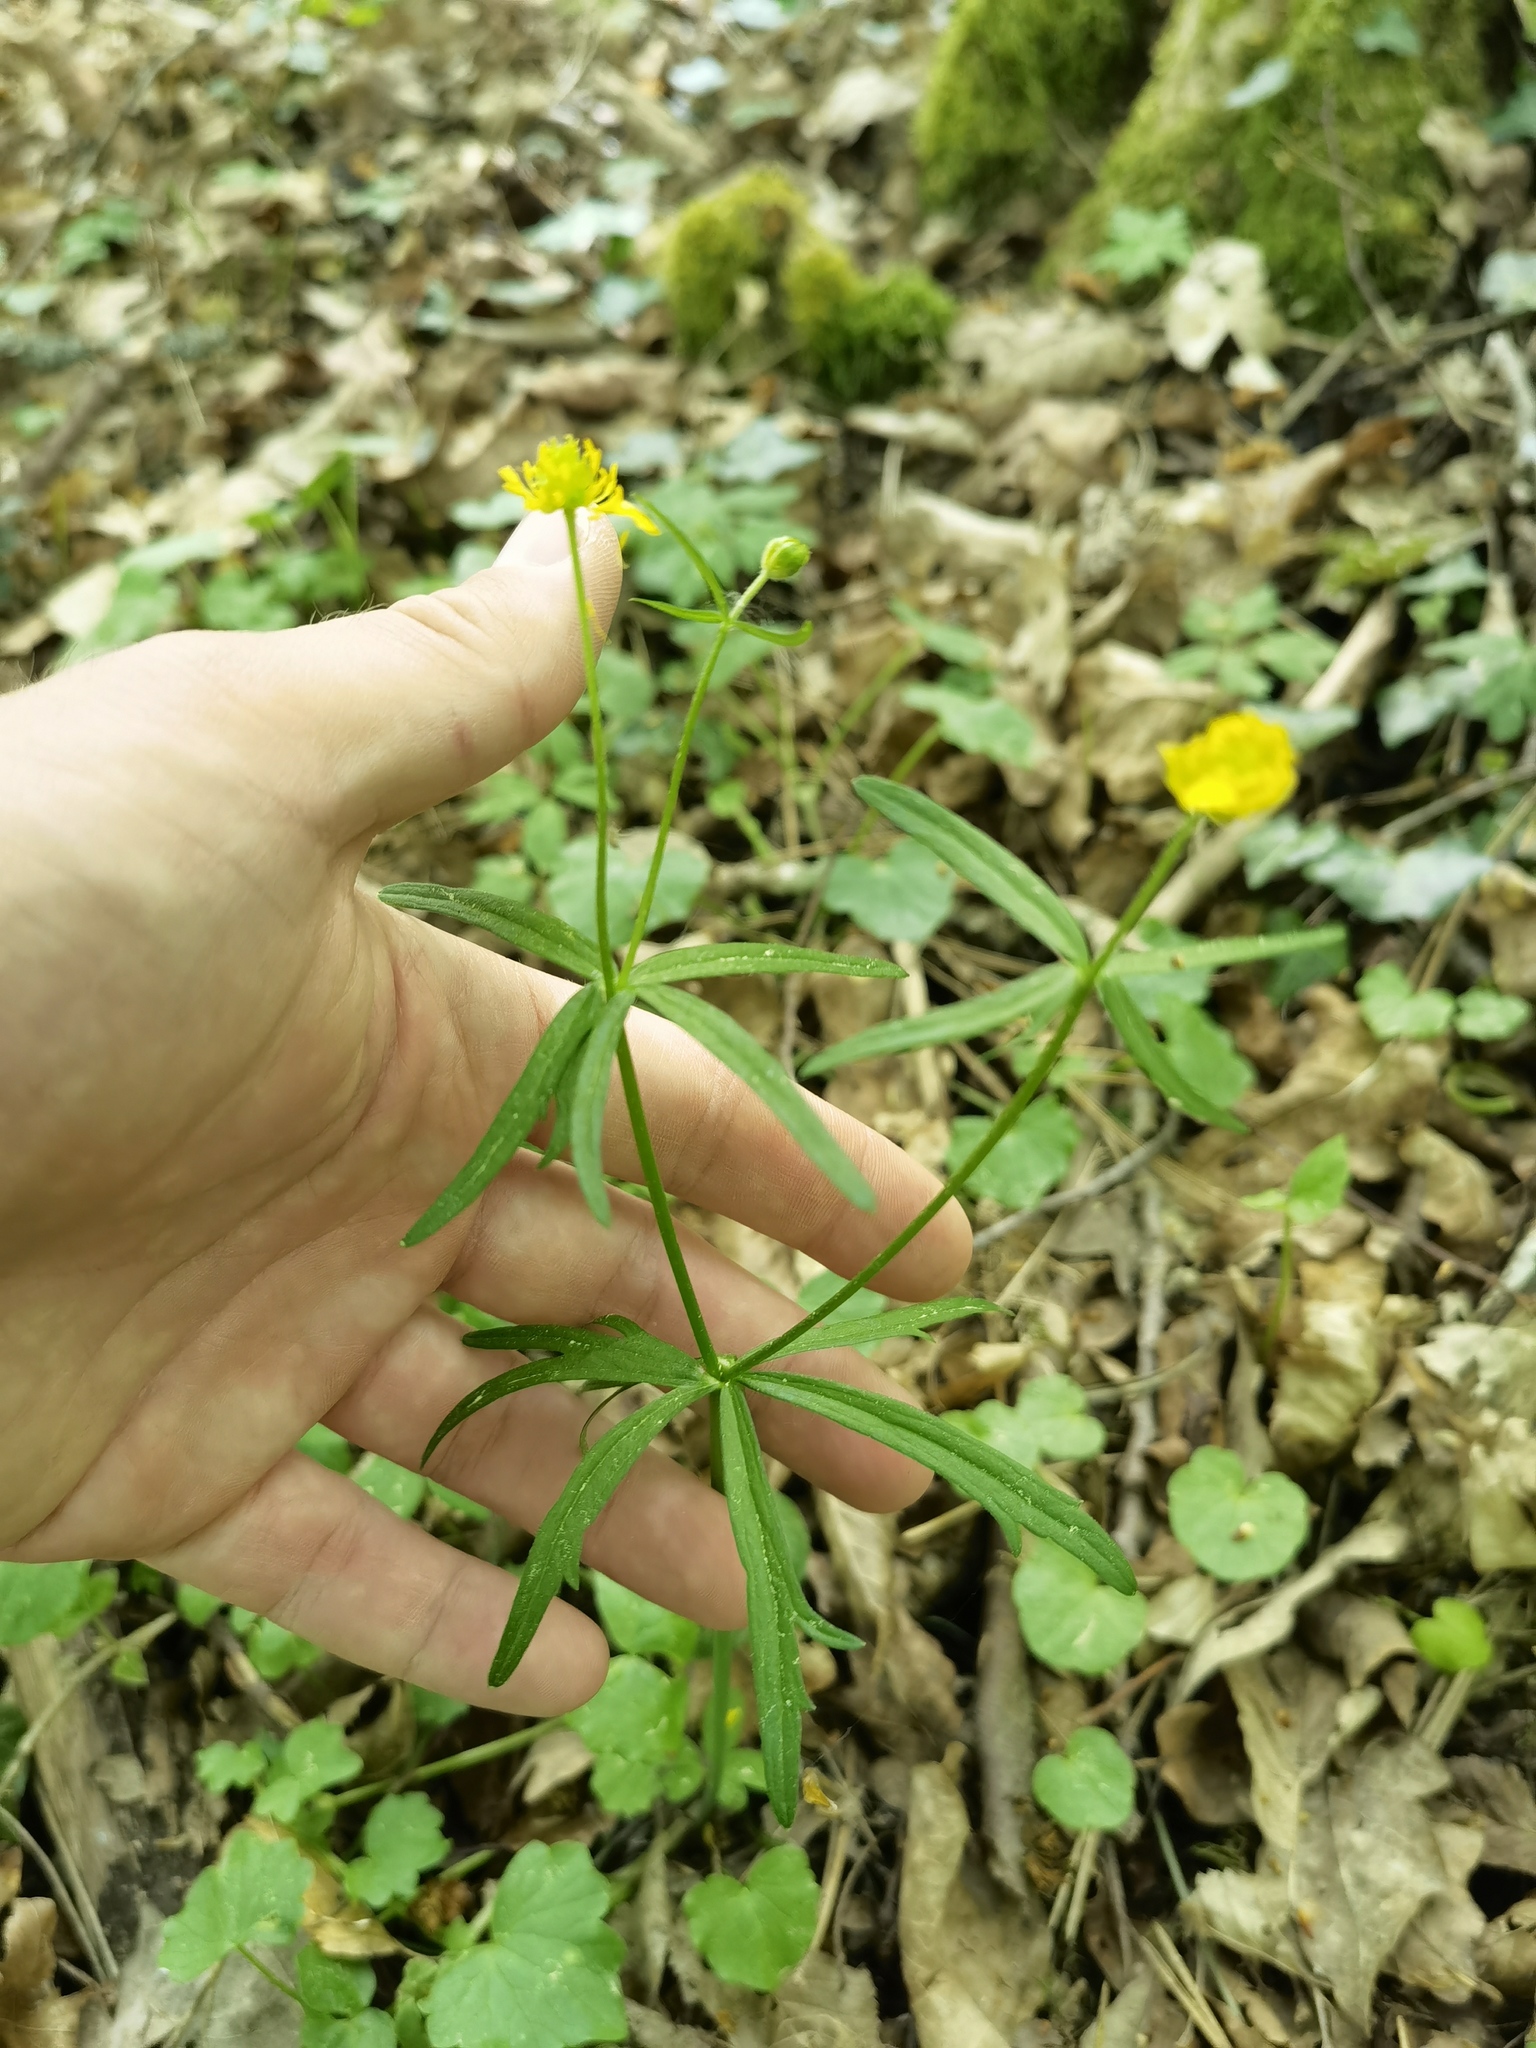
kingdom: Plantae
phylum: Tracheophyta
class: Magnoliopsida
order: Ranunculales
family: Ranunculaceae
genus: Ranunculus
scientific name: Ranunculus auricomus
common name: Goldilocks buttercup
